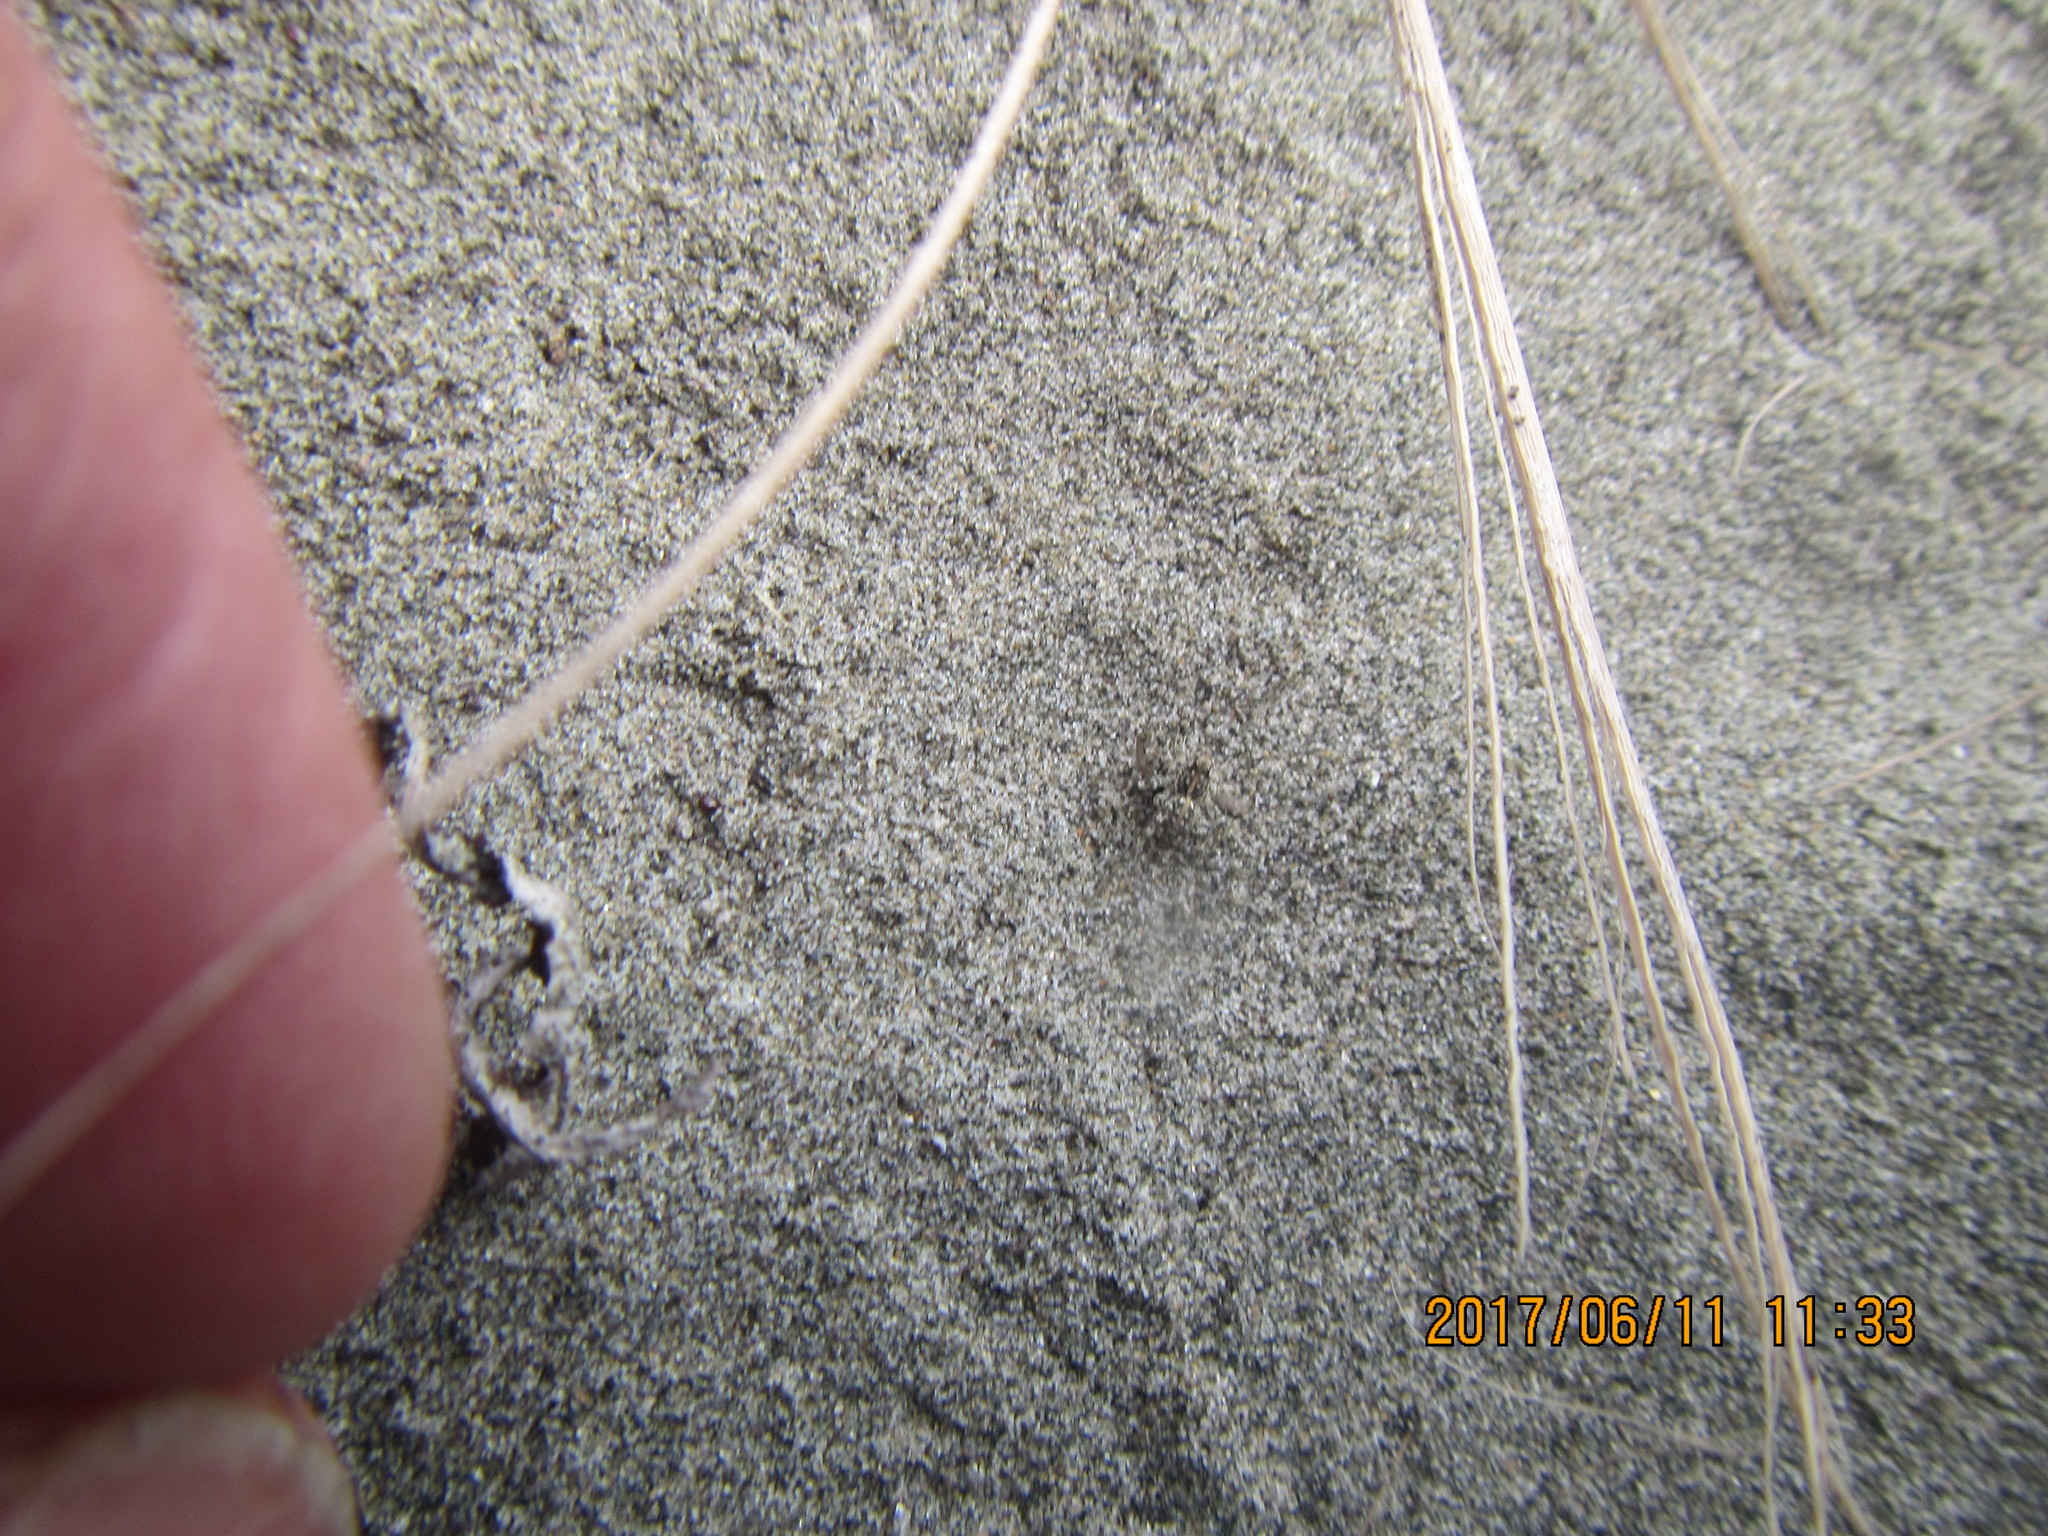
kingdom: Animalia
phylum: Arthropoda
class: Arachnida
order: Araneae
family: Lycosidae
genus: Anoteropsis
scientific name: Anoteropsis litoralis
